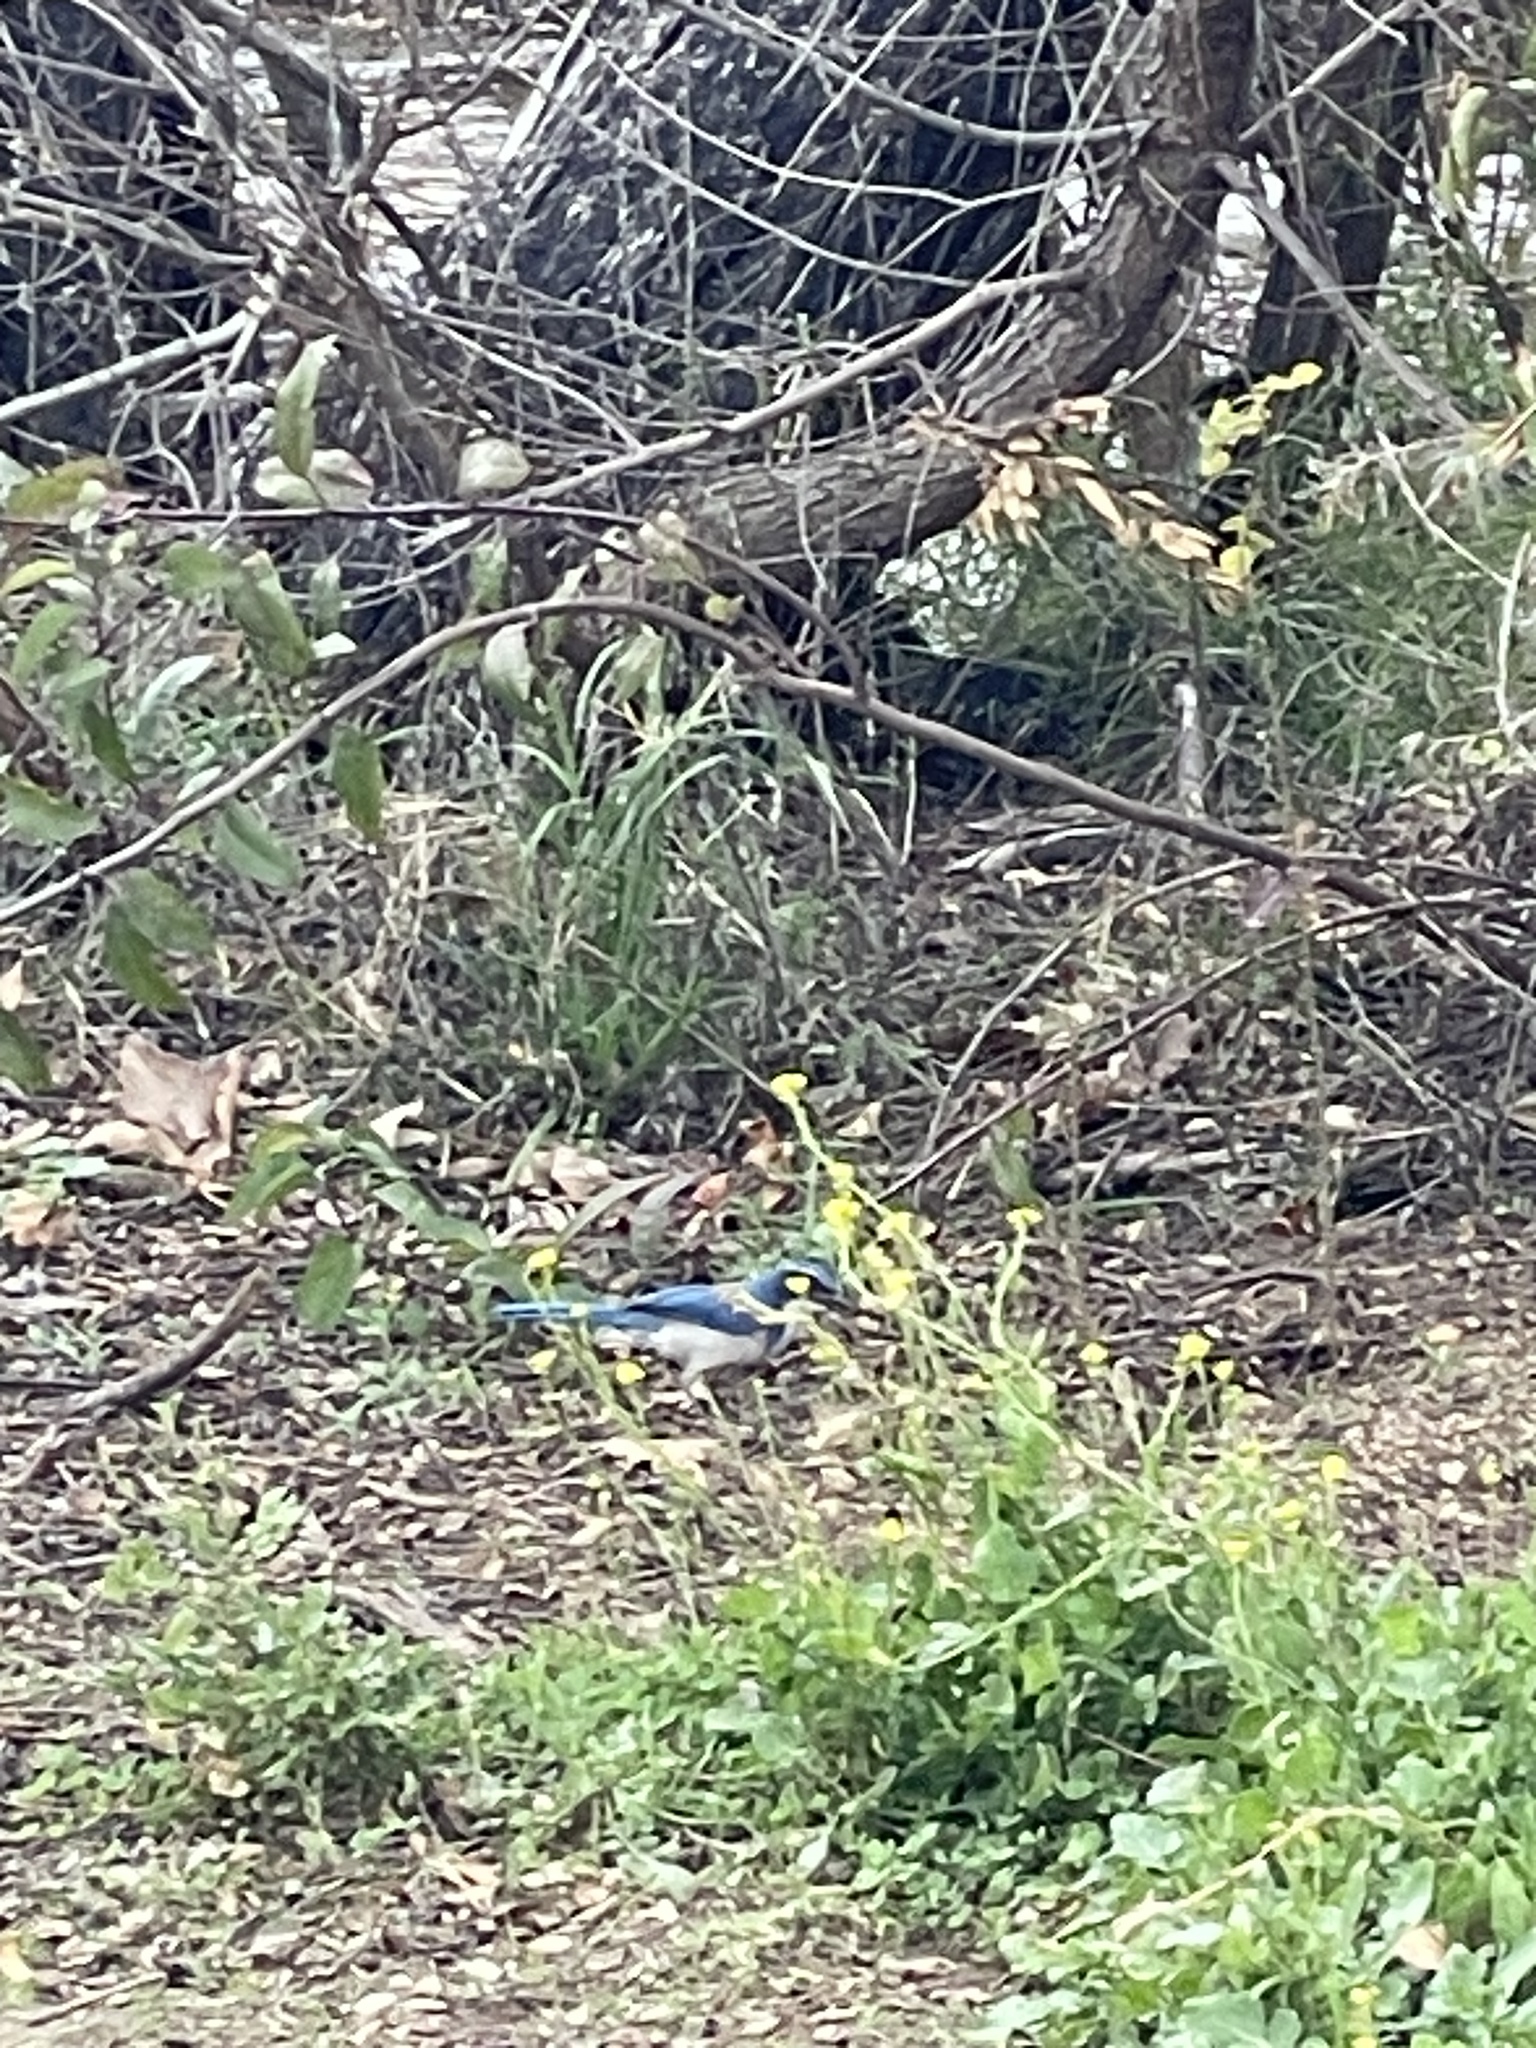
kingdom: Animalia
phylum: Chordata
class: Aves
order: Passeriformes
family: Corvidae
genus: Aphelocoma
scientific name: Aphelocoma californica
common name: California scrub-jay
